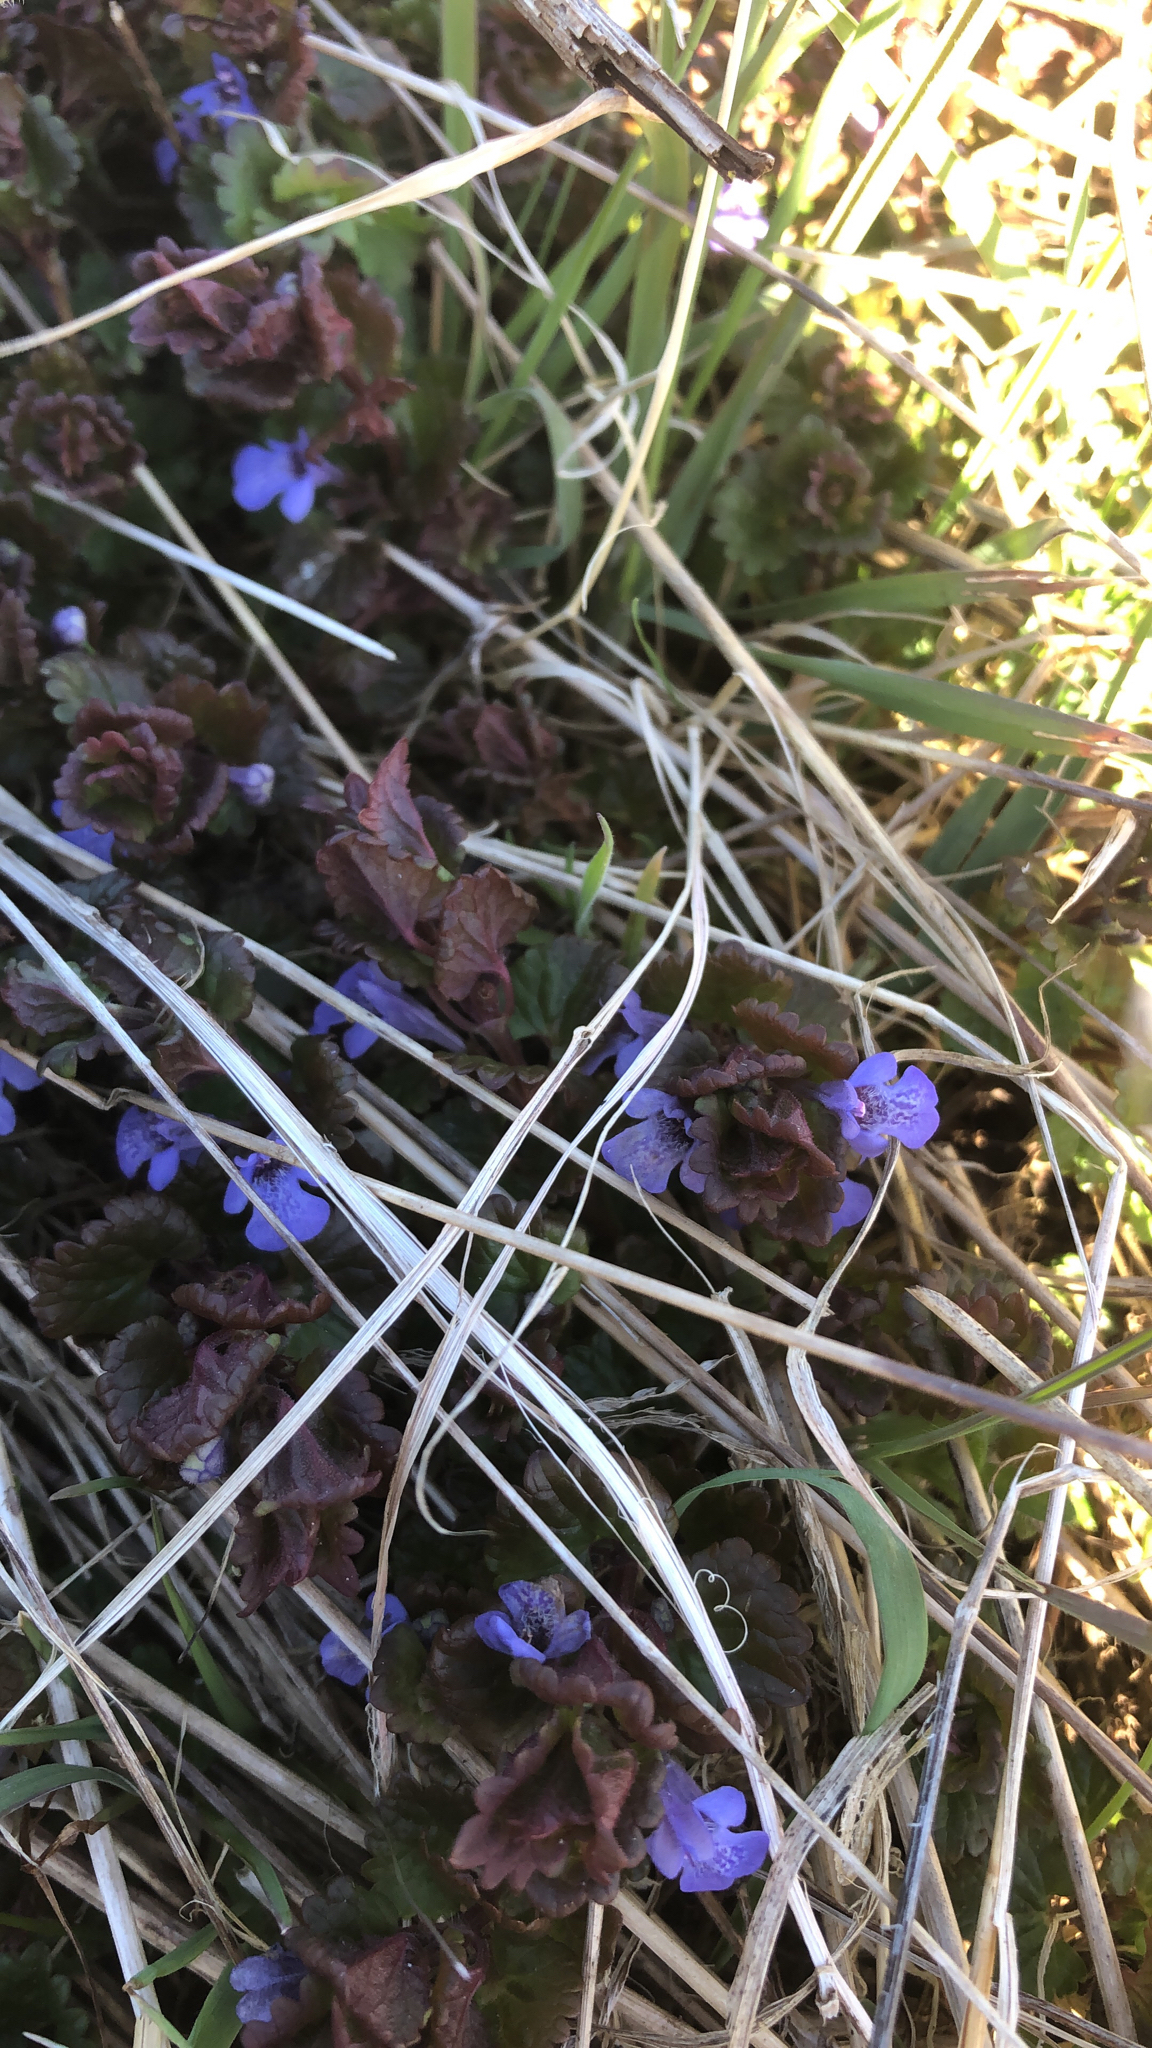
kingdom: Plantae
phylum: Tracheophyta
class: Magnoliopsida
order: Lamiales
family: Lamiaceae
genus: Glechoma
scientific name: Glechoma hederacea
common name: Ground ivy
